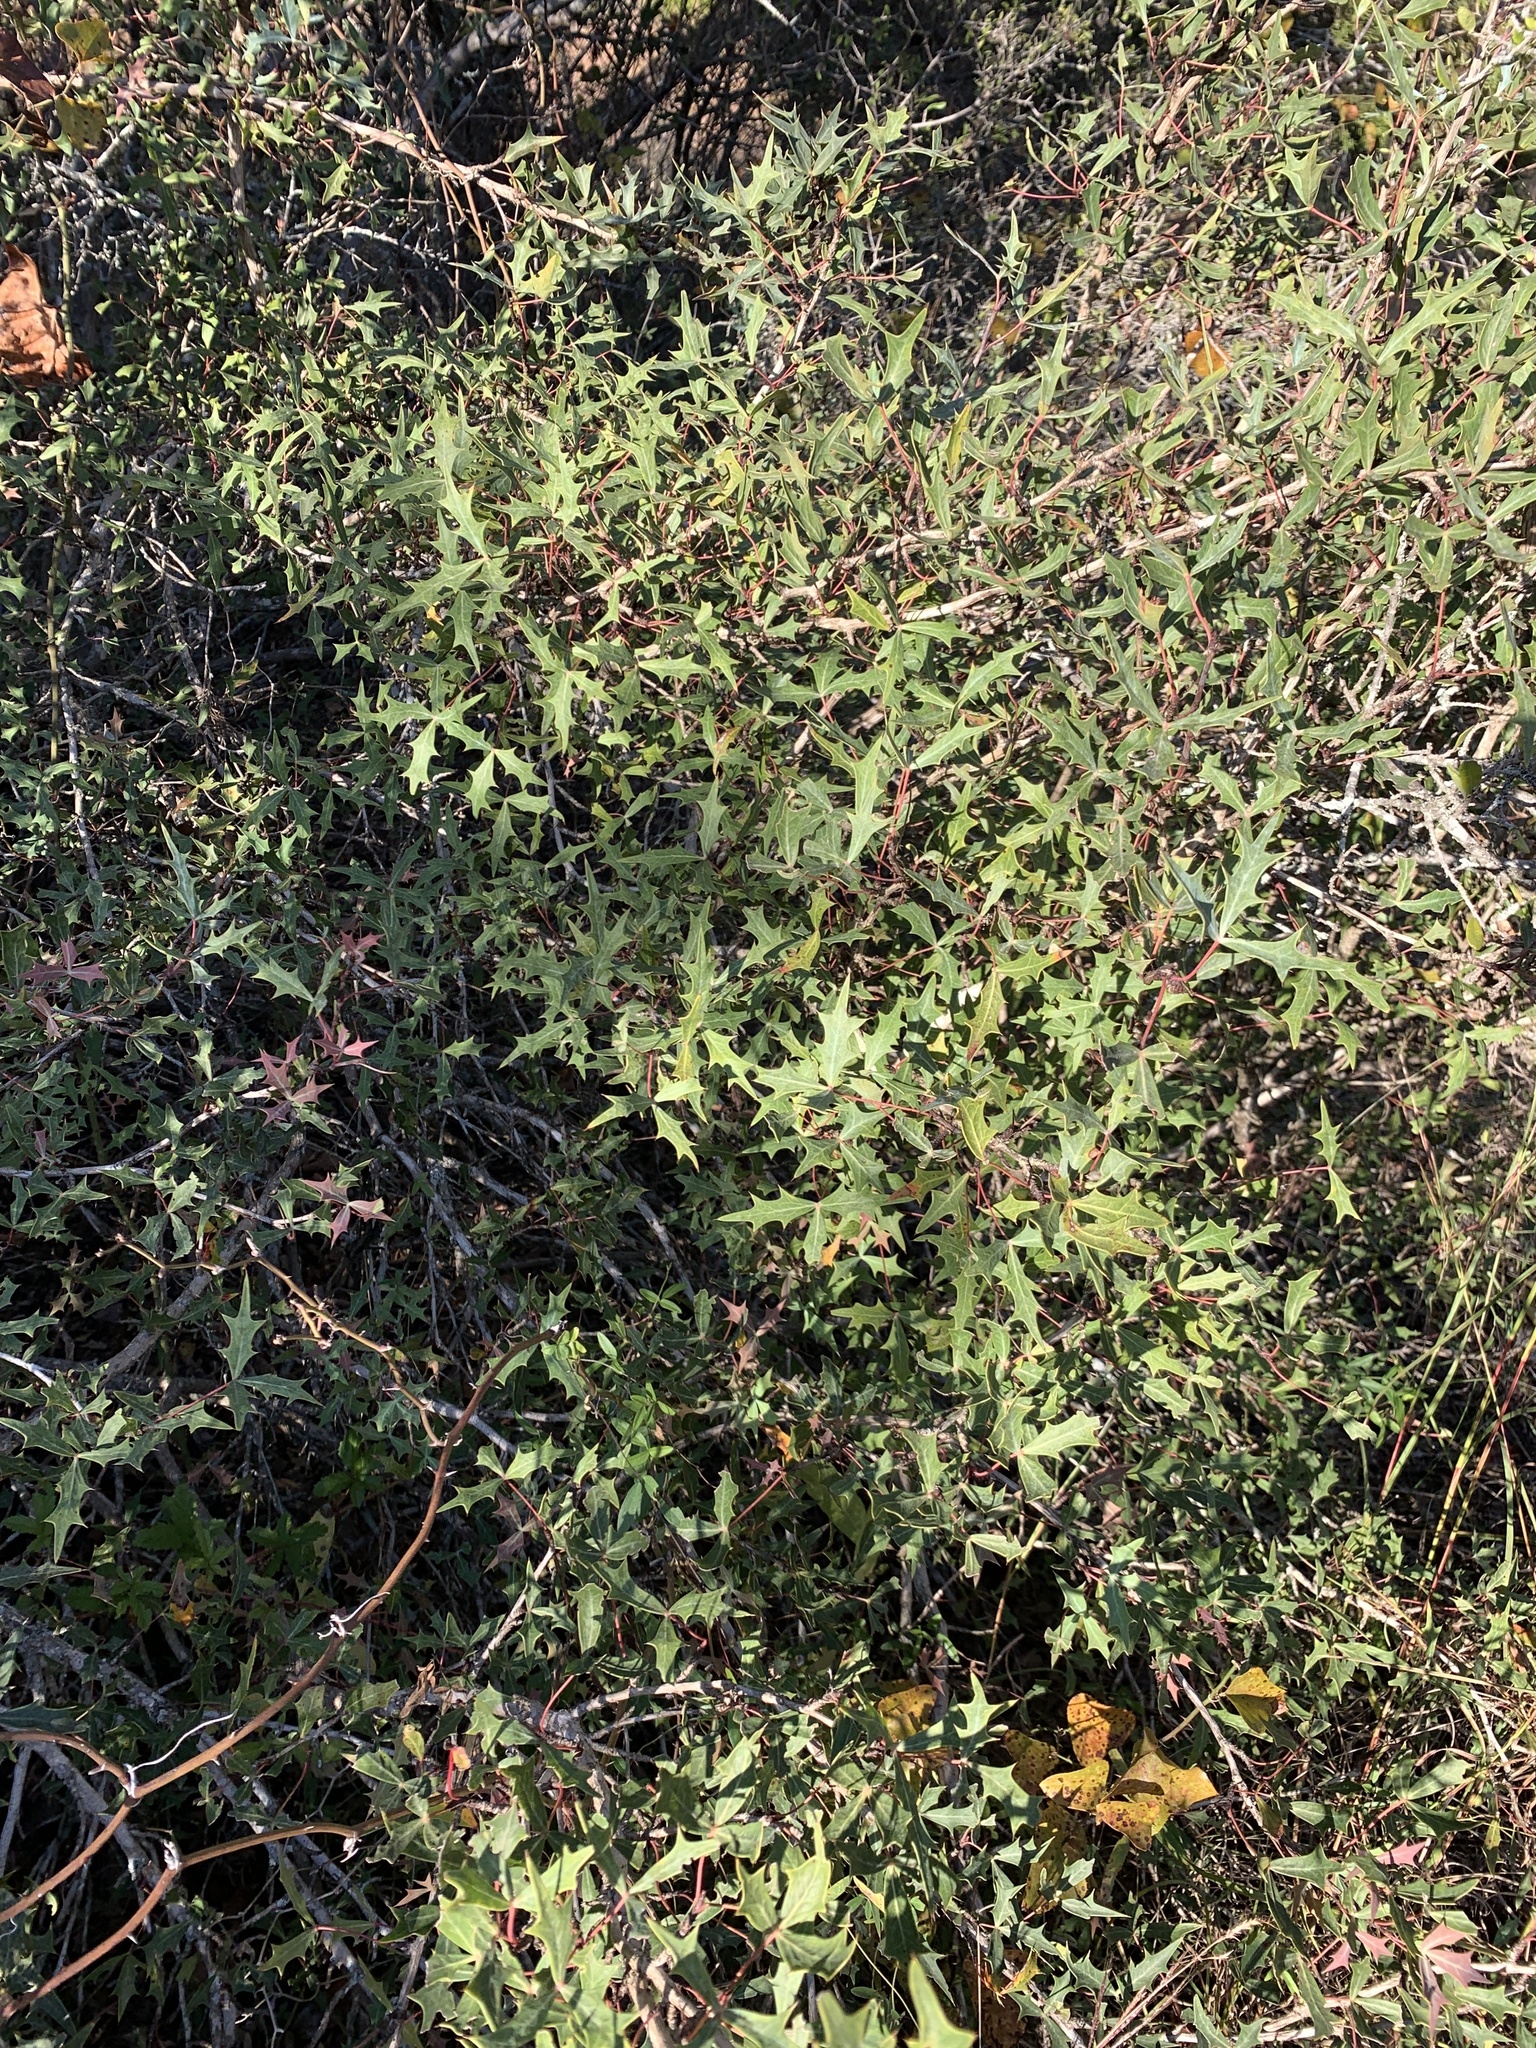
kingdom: Plantae
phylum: Tracheophyta
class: Magnoliopsida
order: Ranunculales
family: Berberidaceae
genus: Alloberberis
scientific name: Alloberberis trifoliolata
